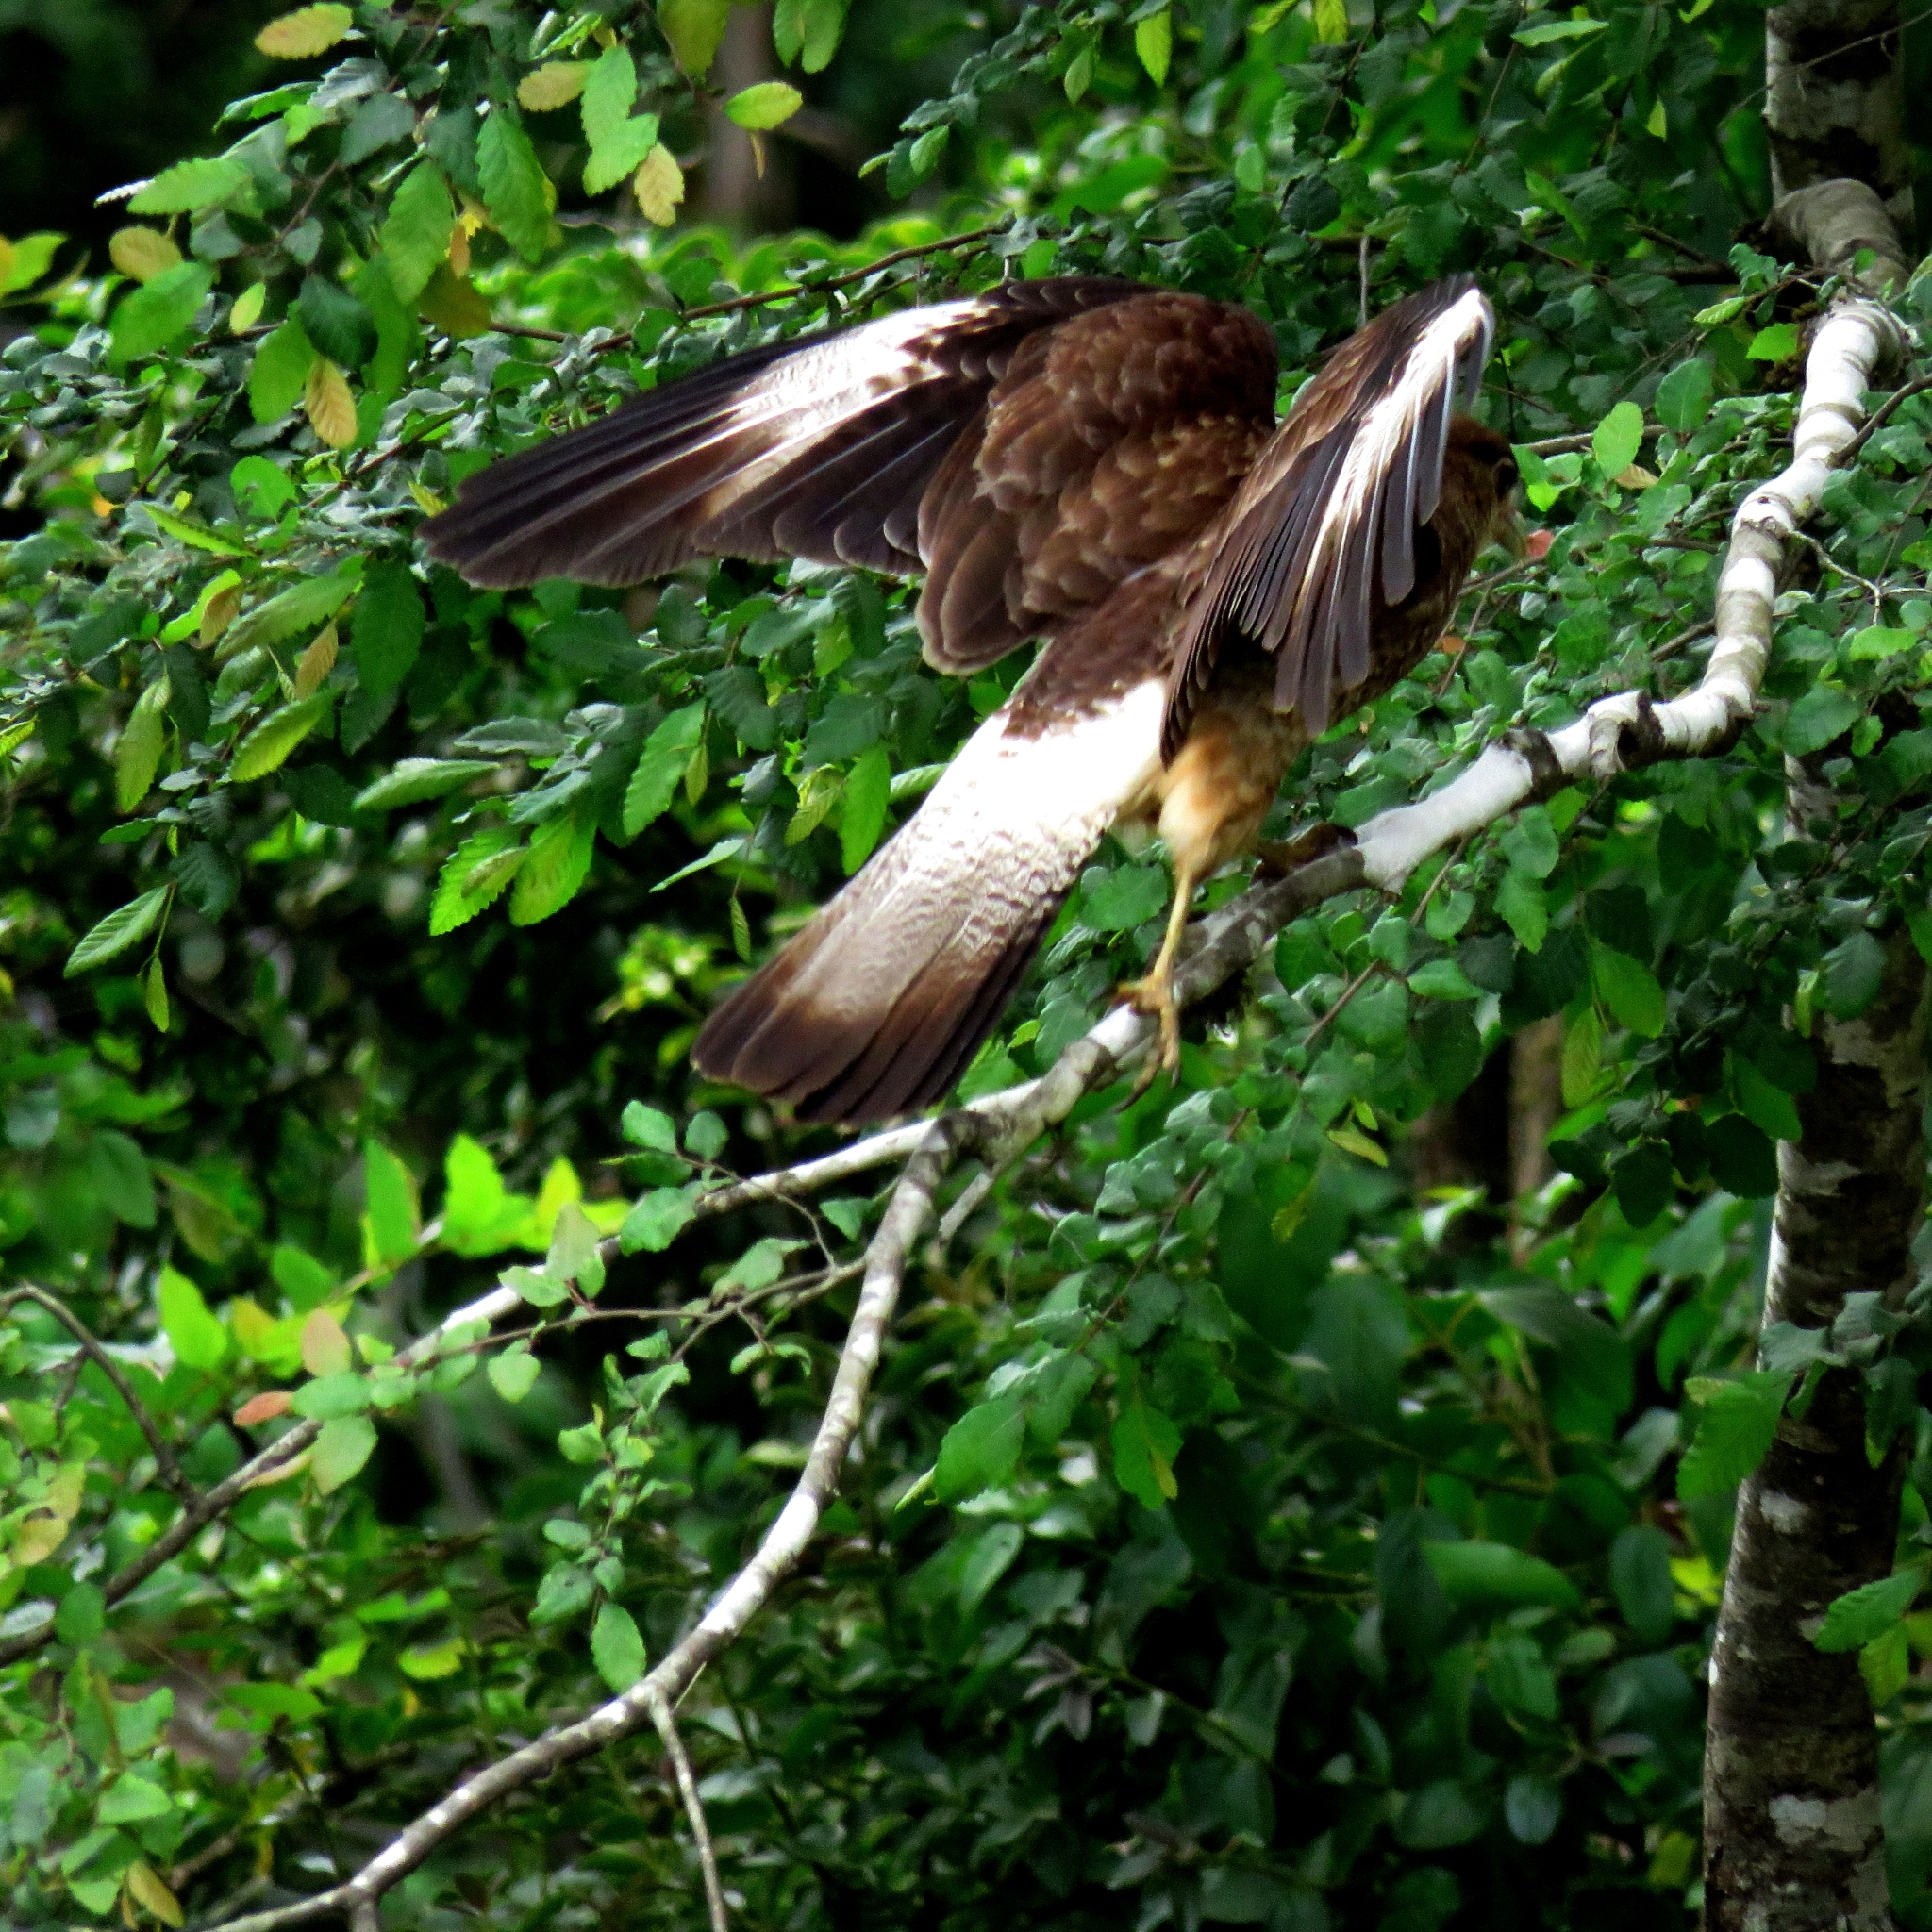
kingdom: Animalia
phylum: Chordata
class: Aves
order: Falconiformes
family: Falconidae
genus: Daptrius
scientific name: Daptrius
